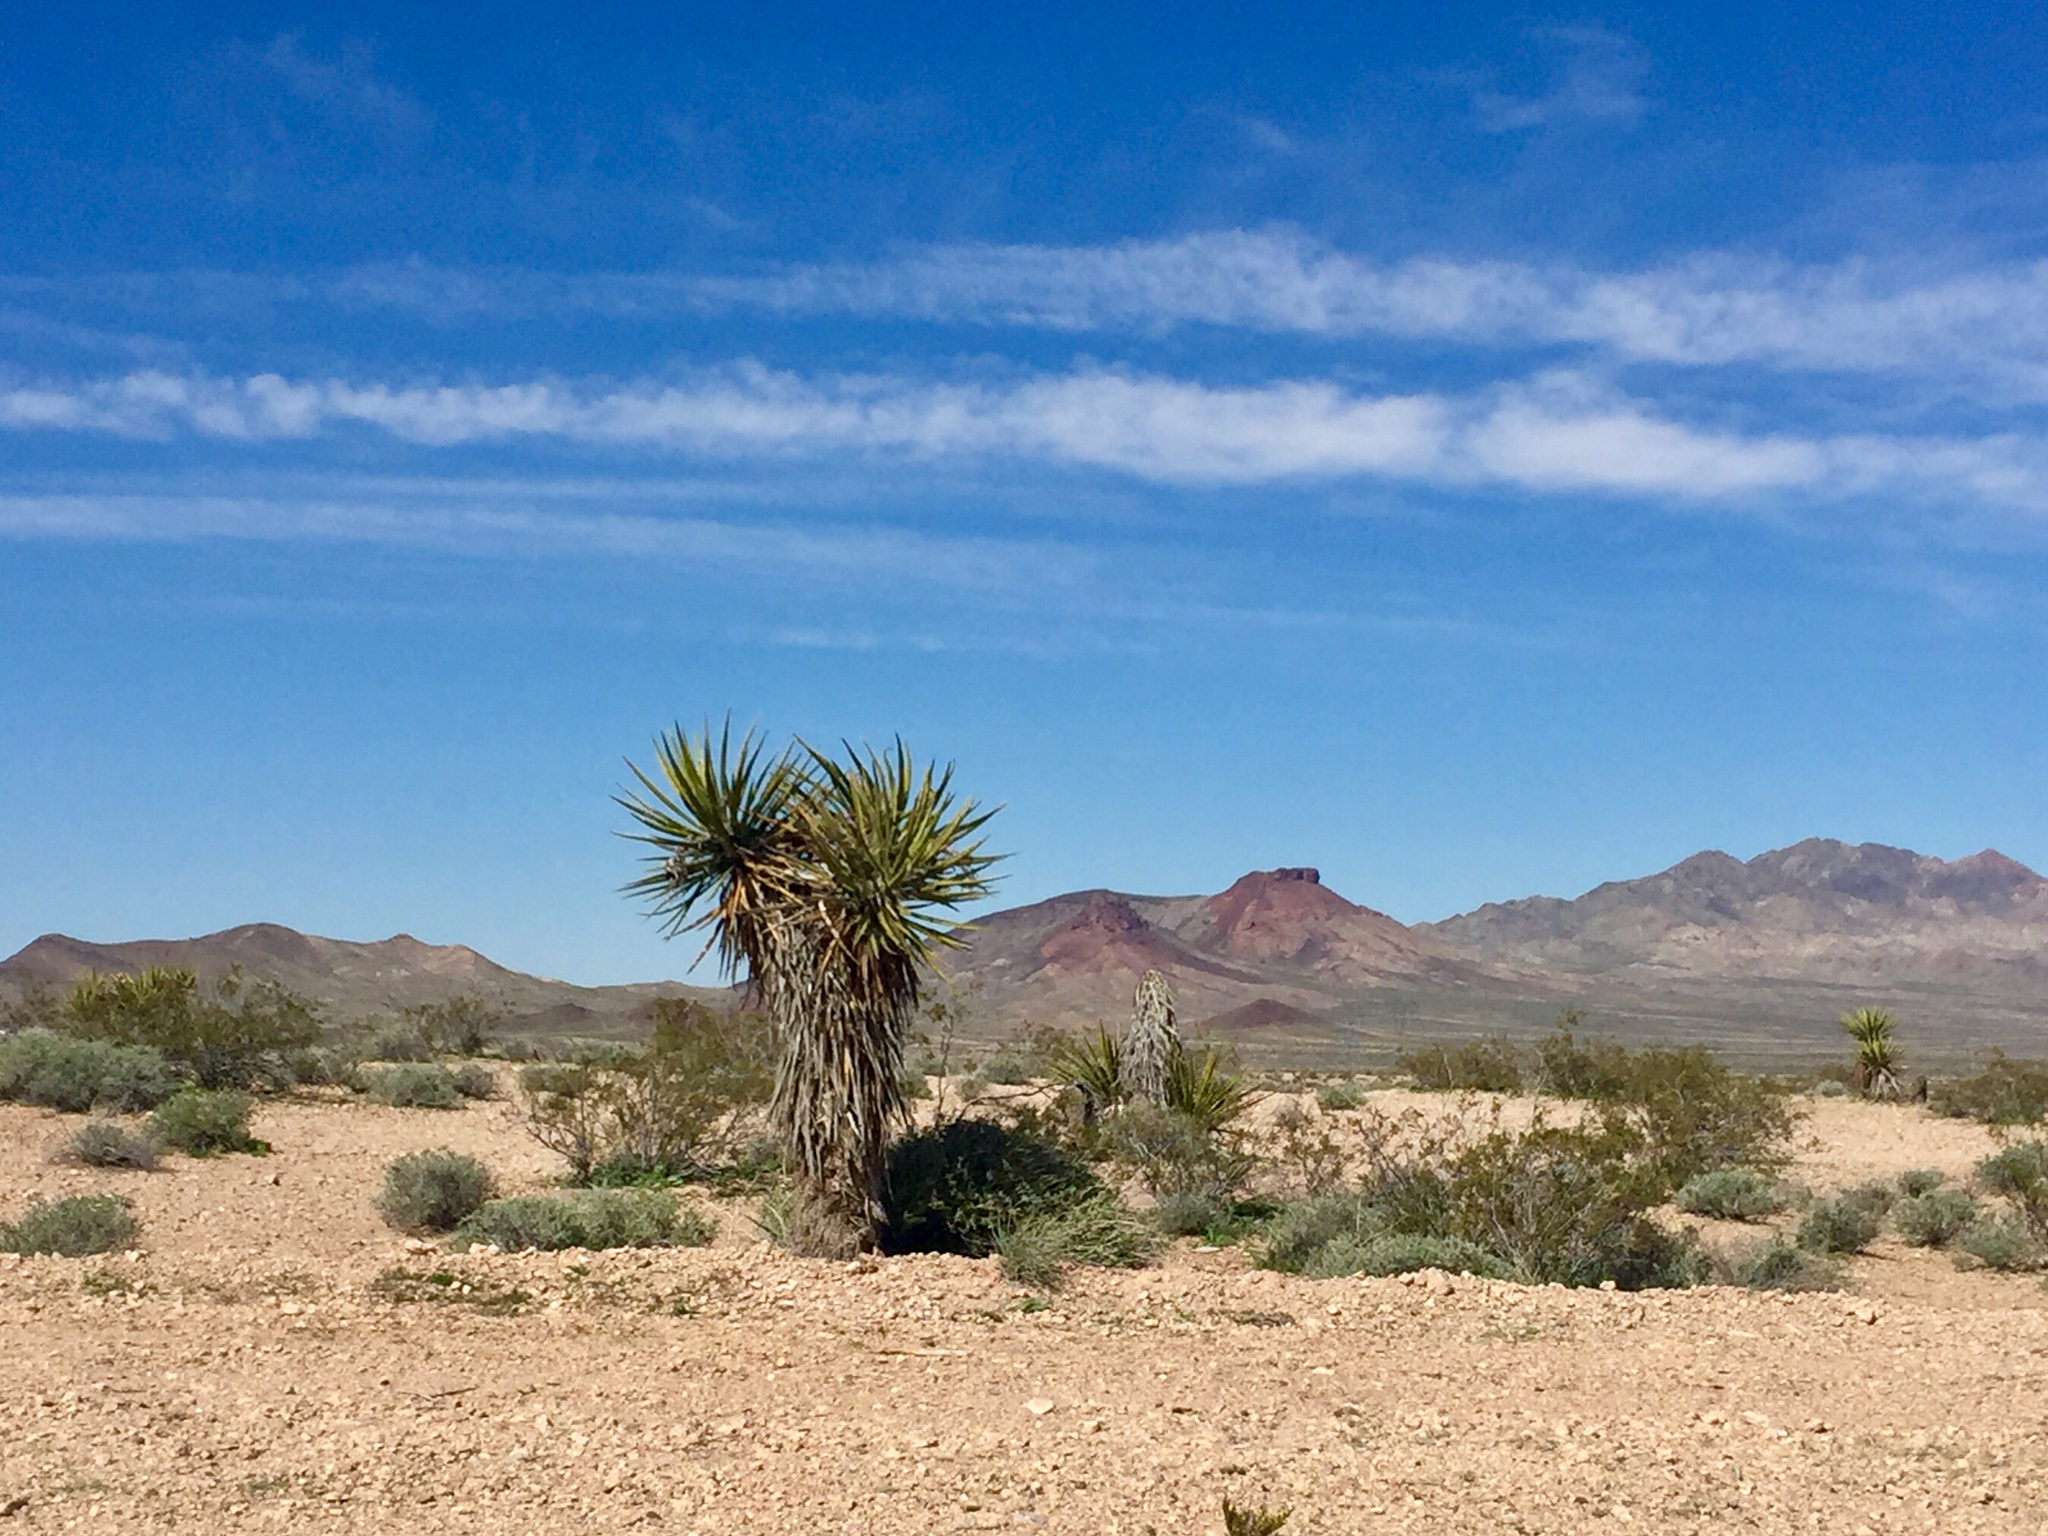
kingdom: Plantae
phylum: Tracheophyta
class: Liliopsida
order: Asparagales
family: Asparagaceae
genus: Yucca
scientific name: Yucca schidigera
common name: Mojave yucca
